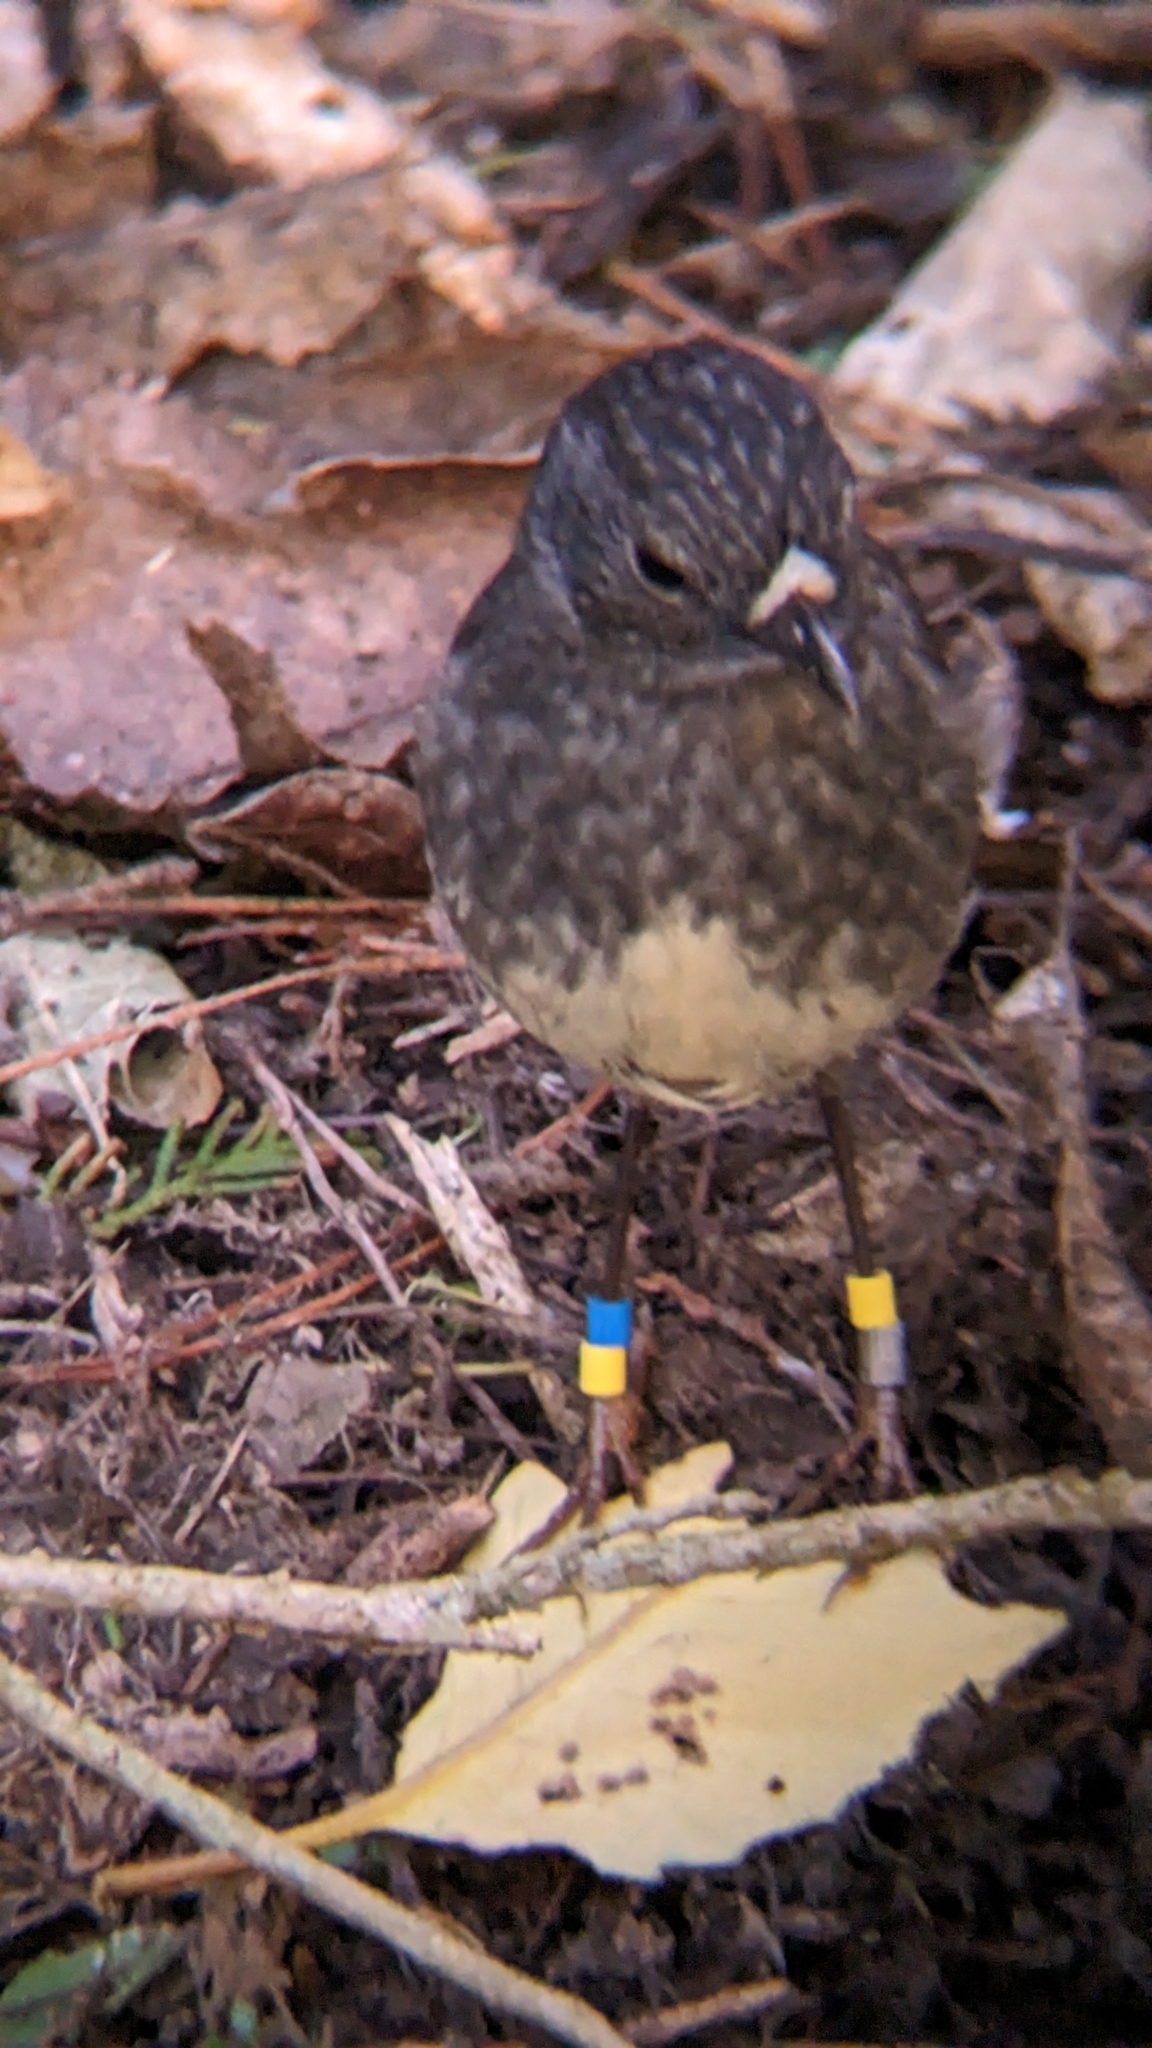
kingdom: Animalia
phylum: Chordata
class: Aves
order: Passeriformes
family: Petroicidae
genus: Petroica
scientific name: Petroica australis
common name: New zealand robin
